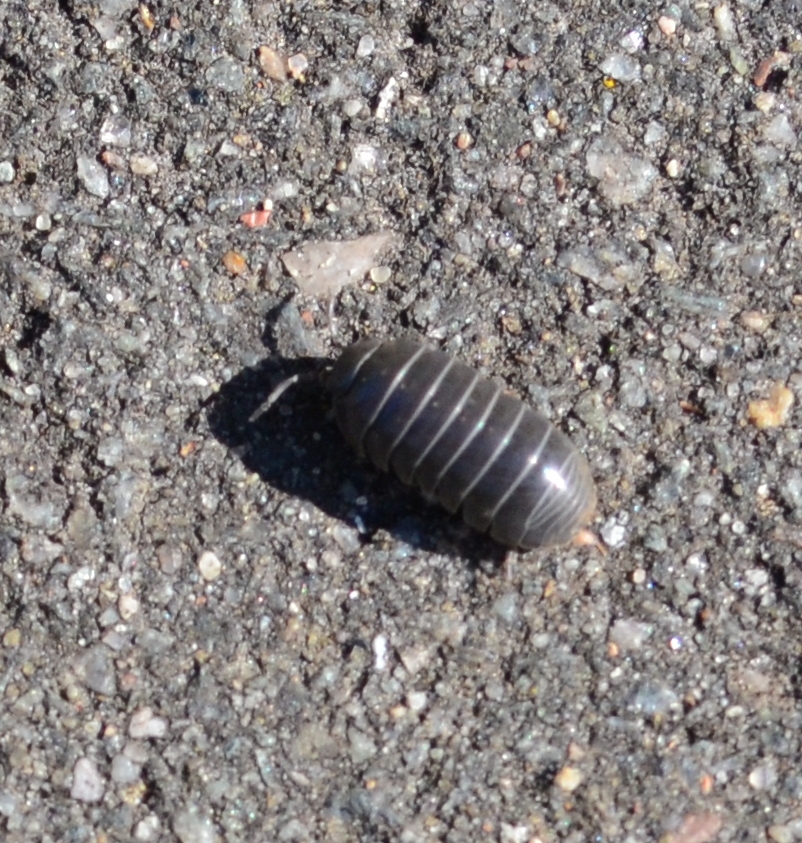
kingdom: Animalia
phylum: Arthropoda
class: Malacostraca
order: Isopoda
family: Armadillidiidae
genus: Armadillidium
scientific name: Armadillidium vulgare
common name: Common pill woodlouse
